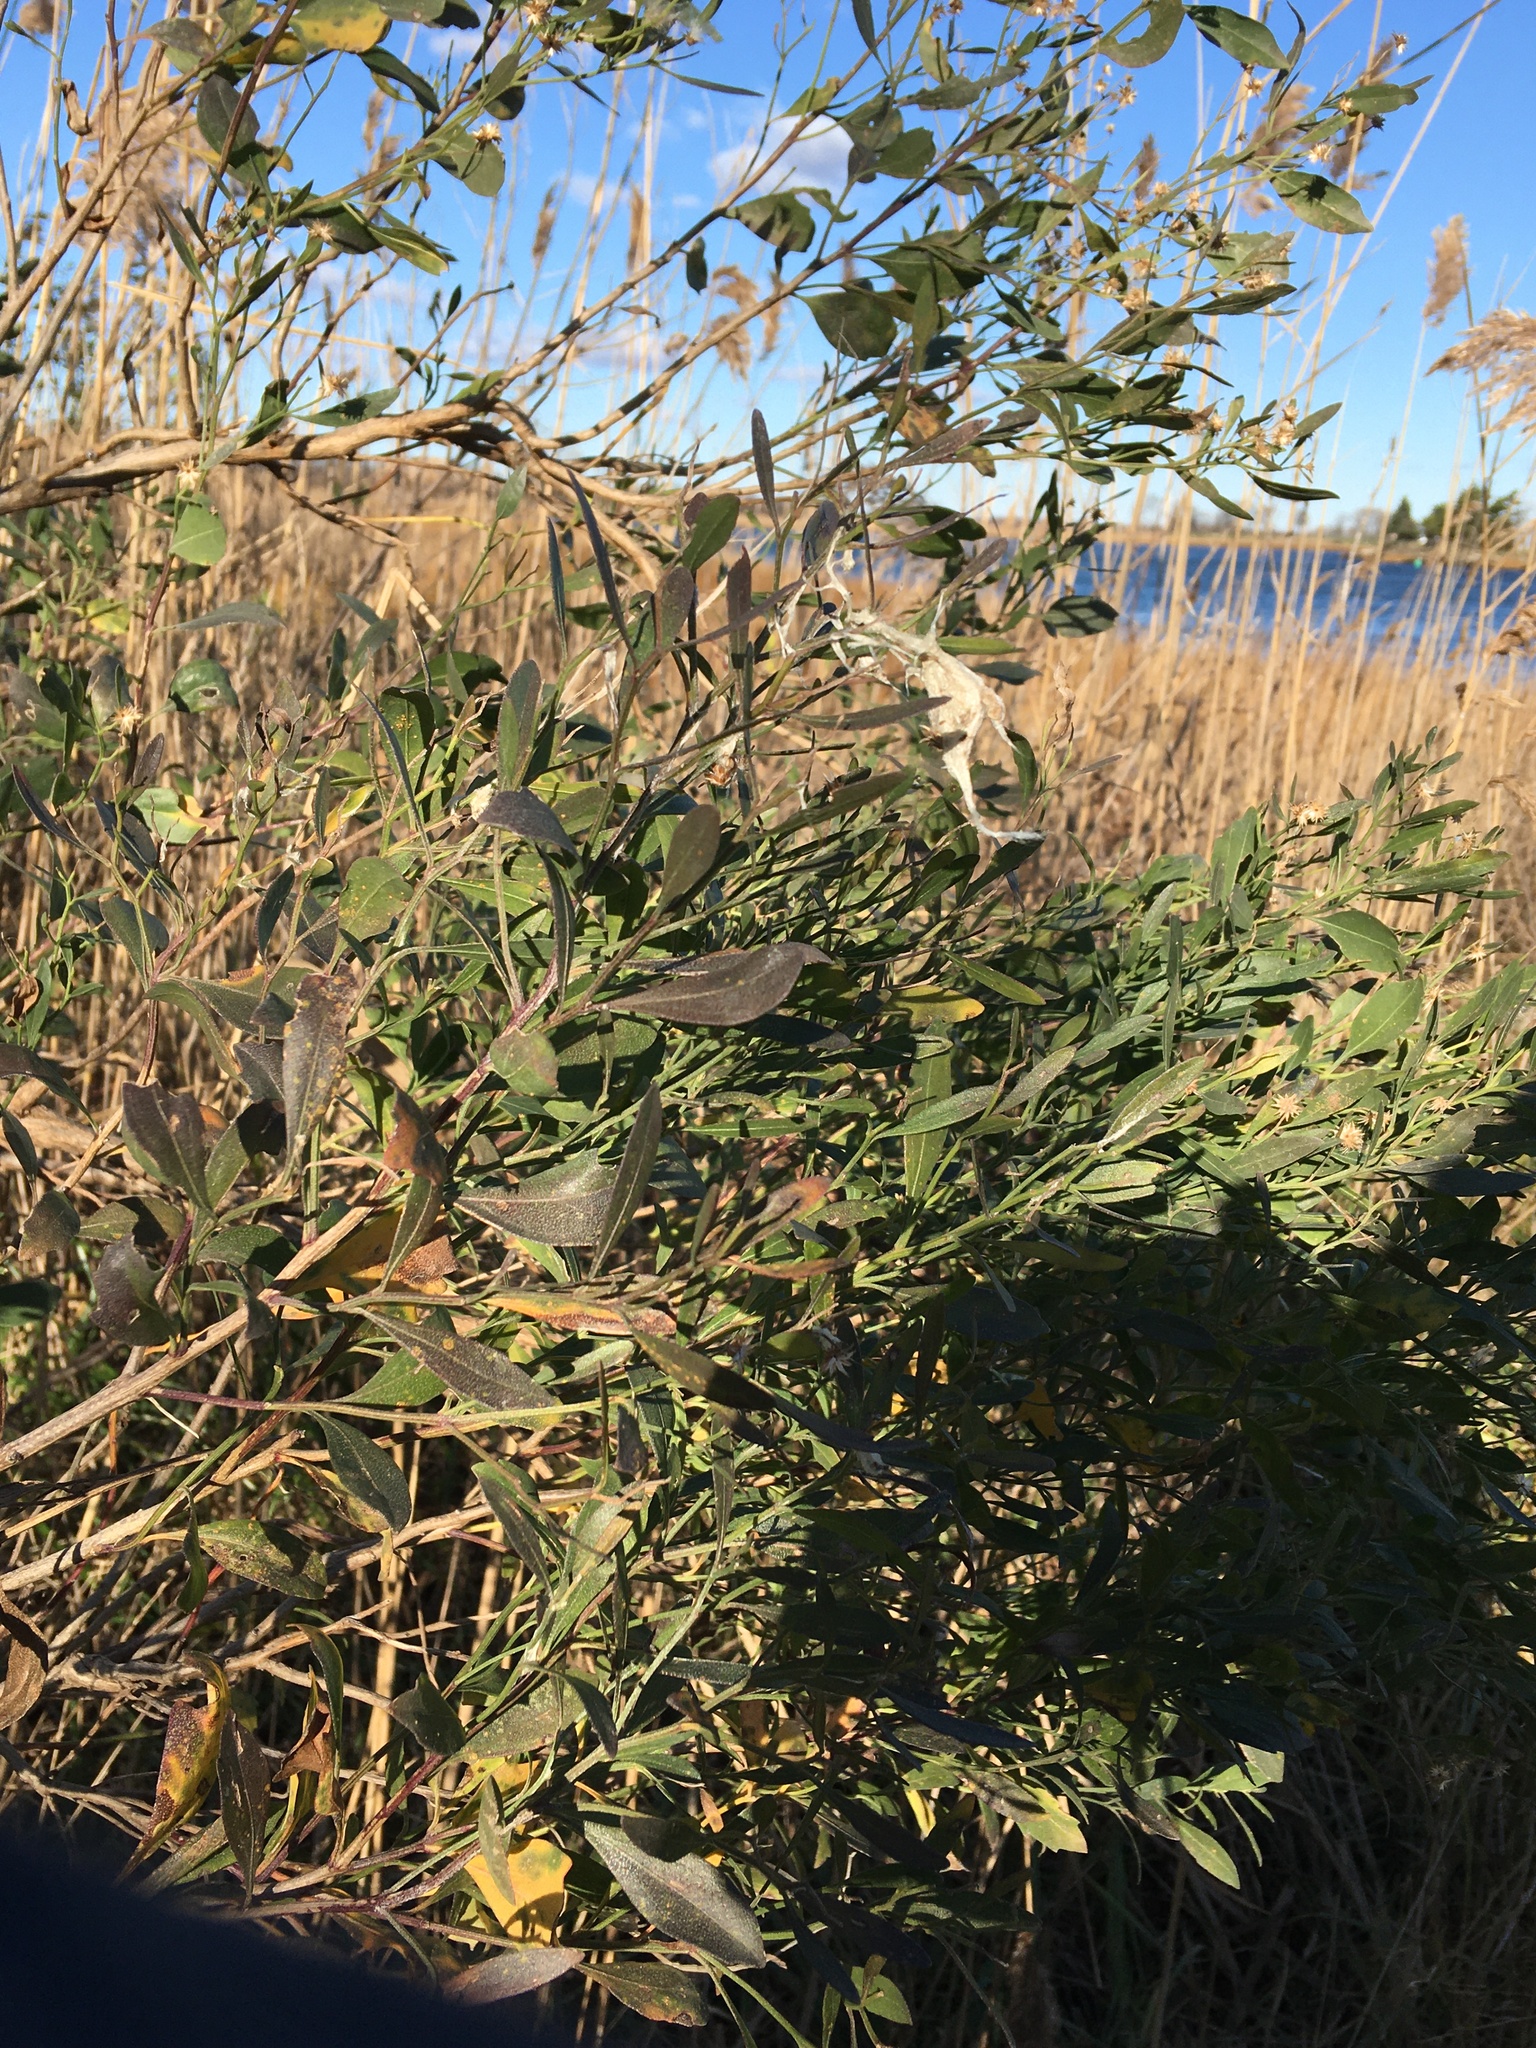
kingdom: Plantae
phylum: Tracheophyta
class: Magnoliopsida
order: Asterales
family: Asteraceae
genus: Baccharis
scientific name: Baccharis halimifolia
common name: Eastern baccharis
